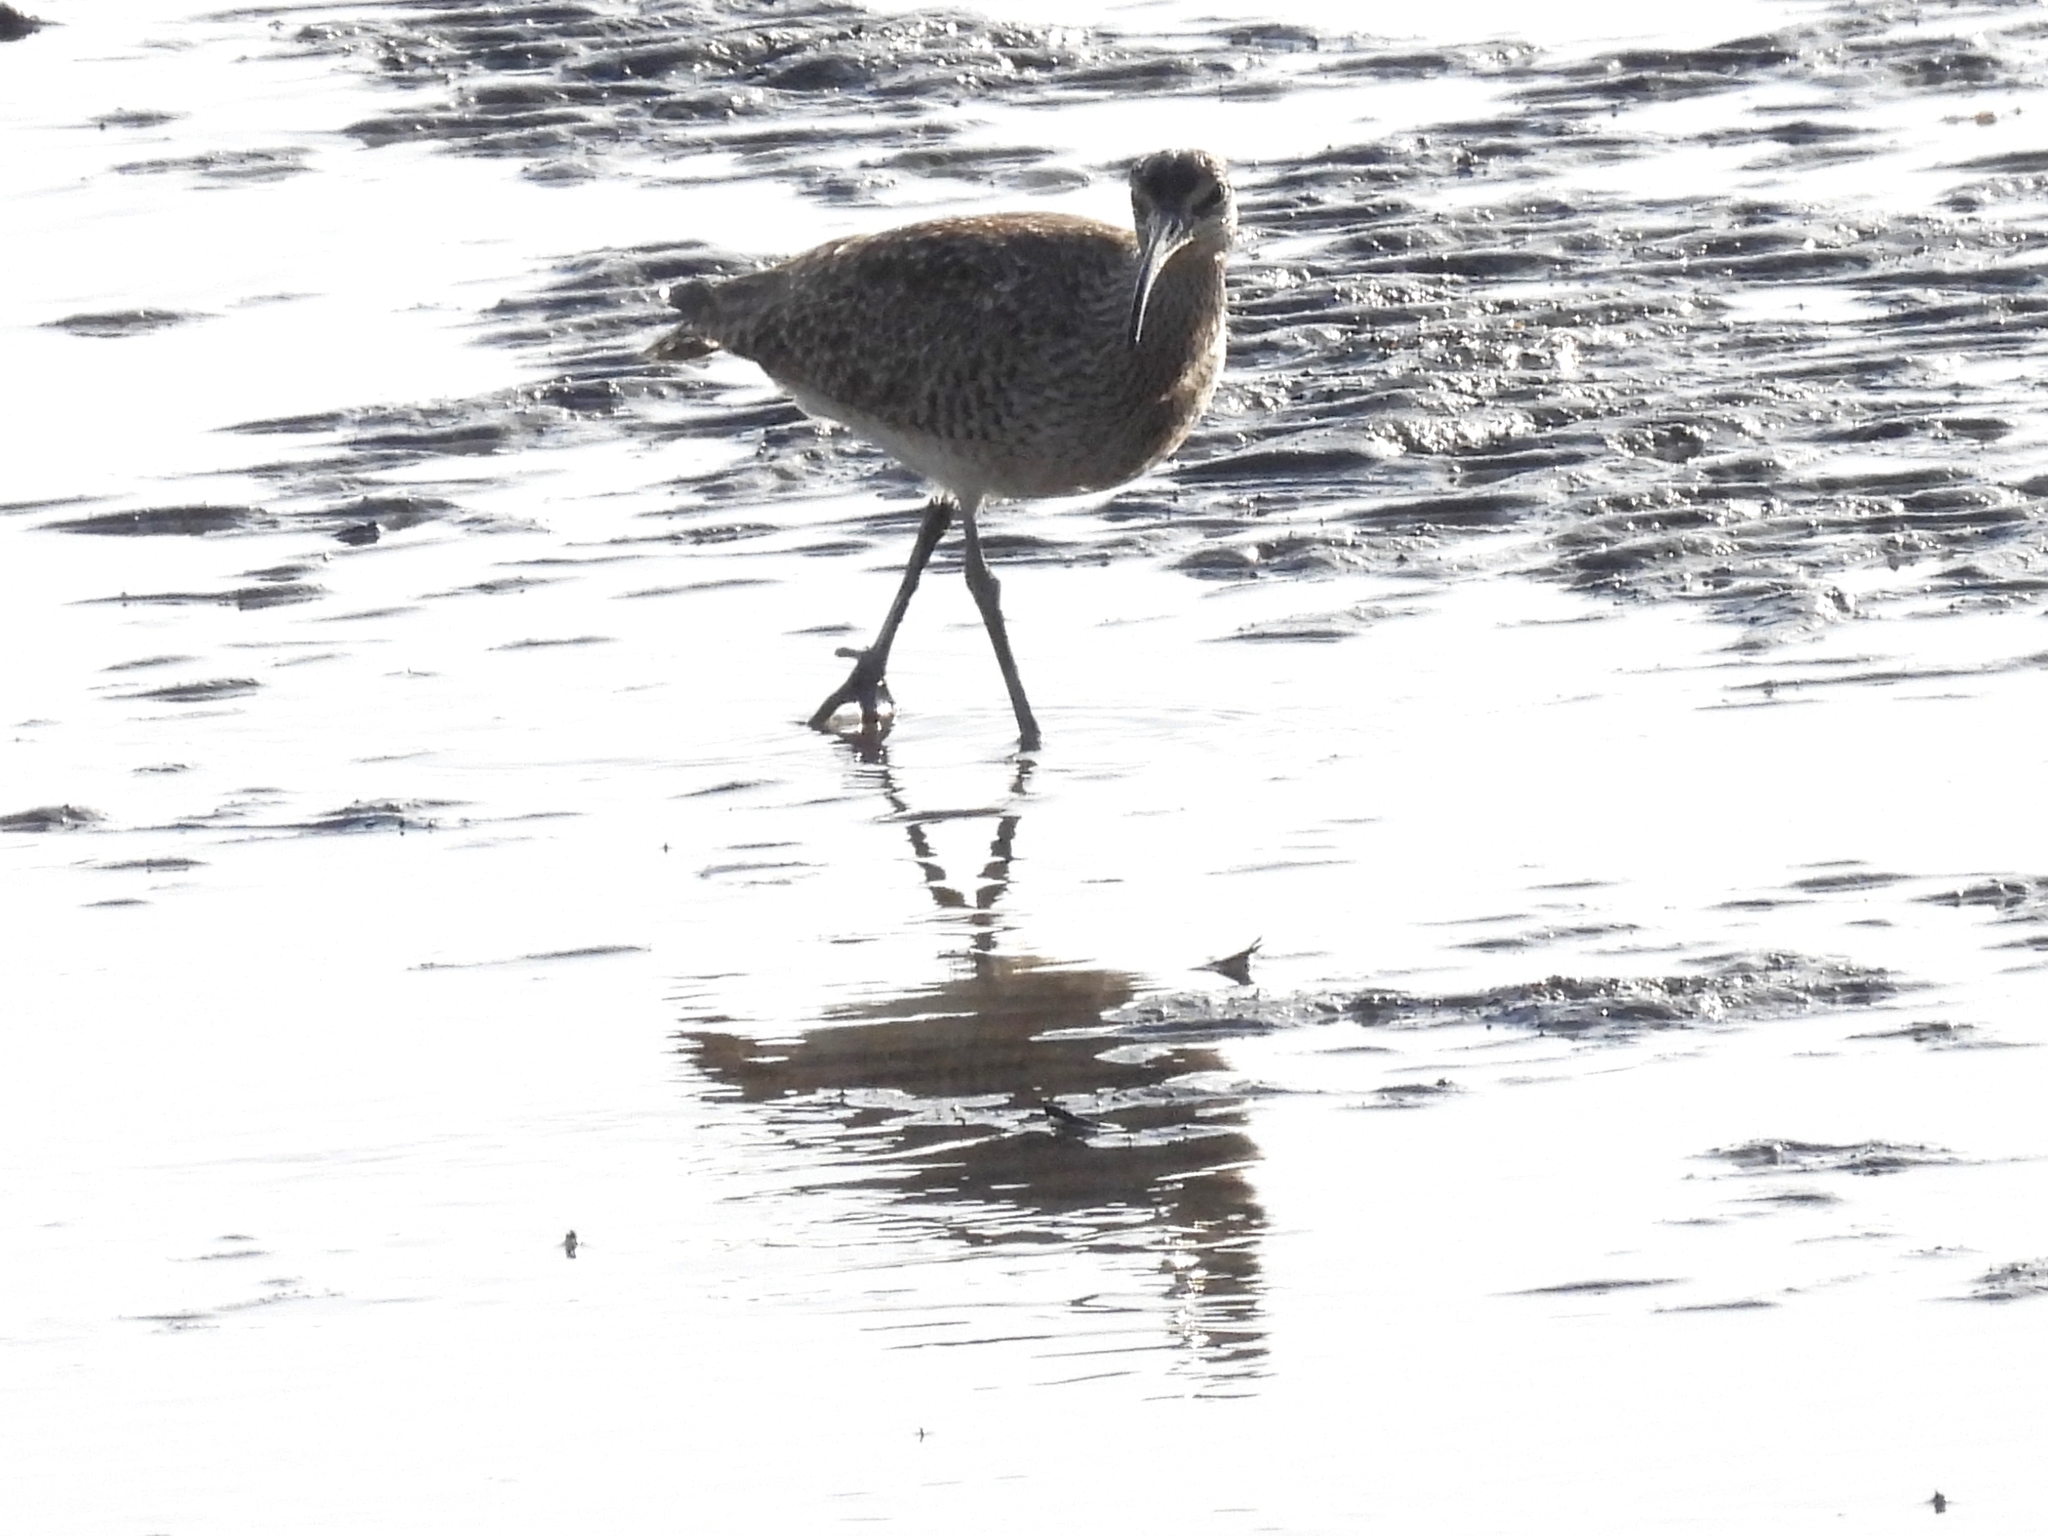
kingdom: Animalia
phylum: Chordata
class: Aves
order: Charadriiformes
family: Scolopacidae
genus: Numenius
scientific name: Numenius phaeopus
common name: Whimbrel
